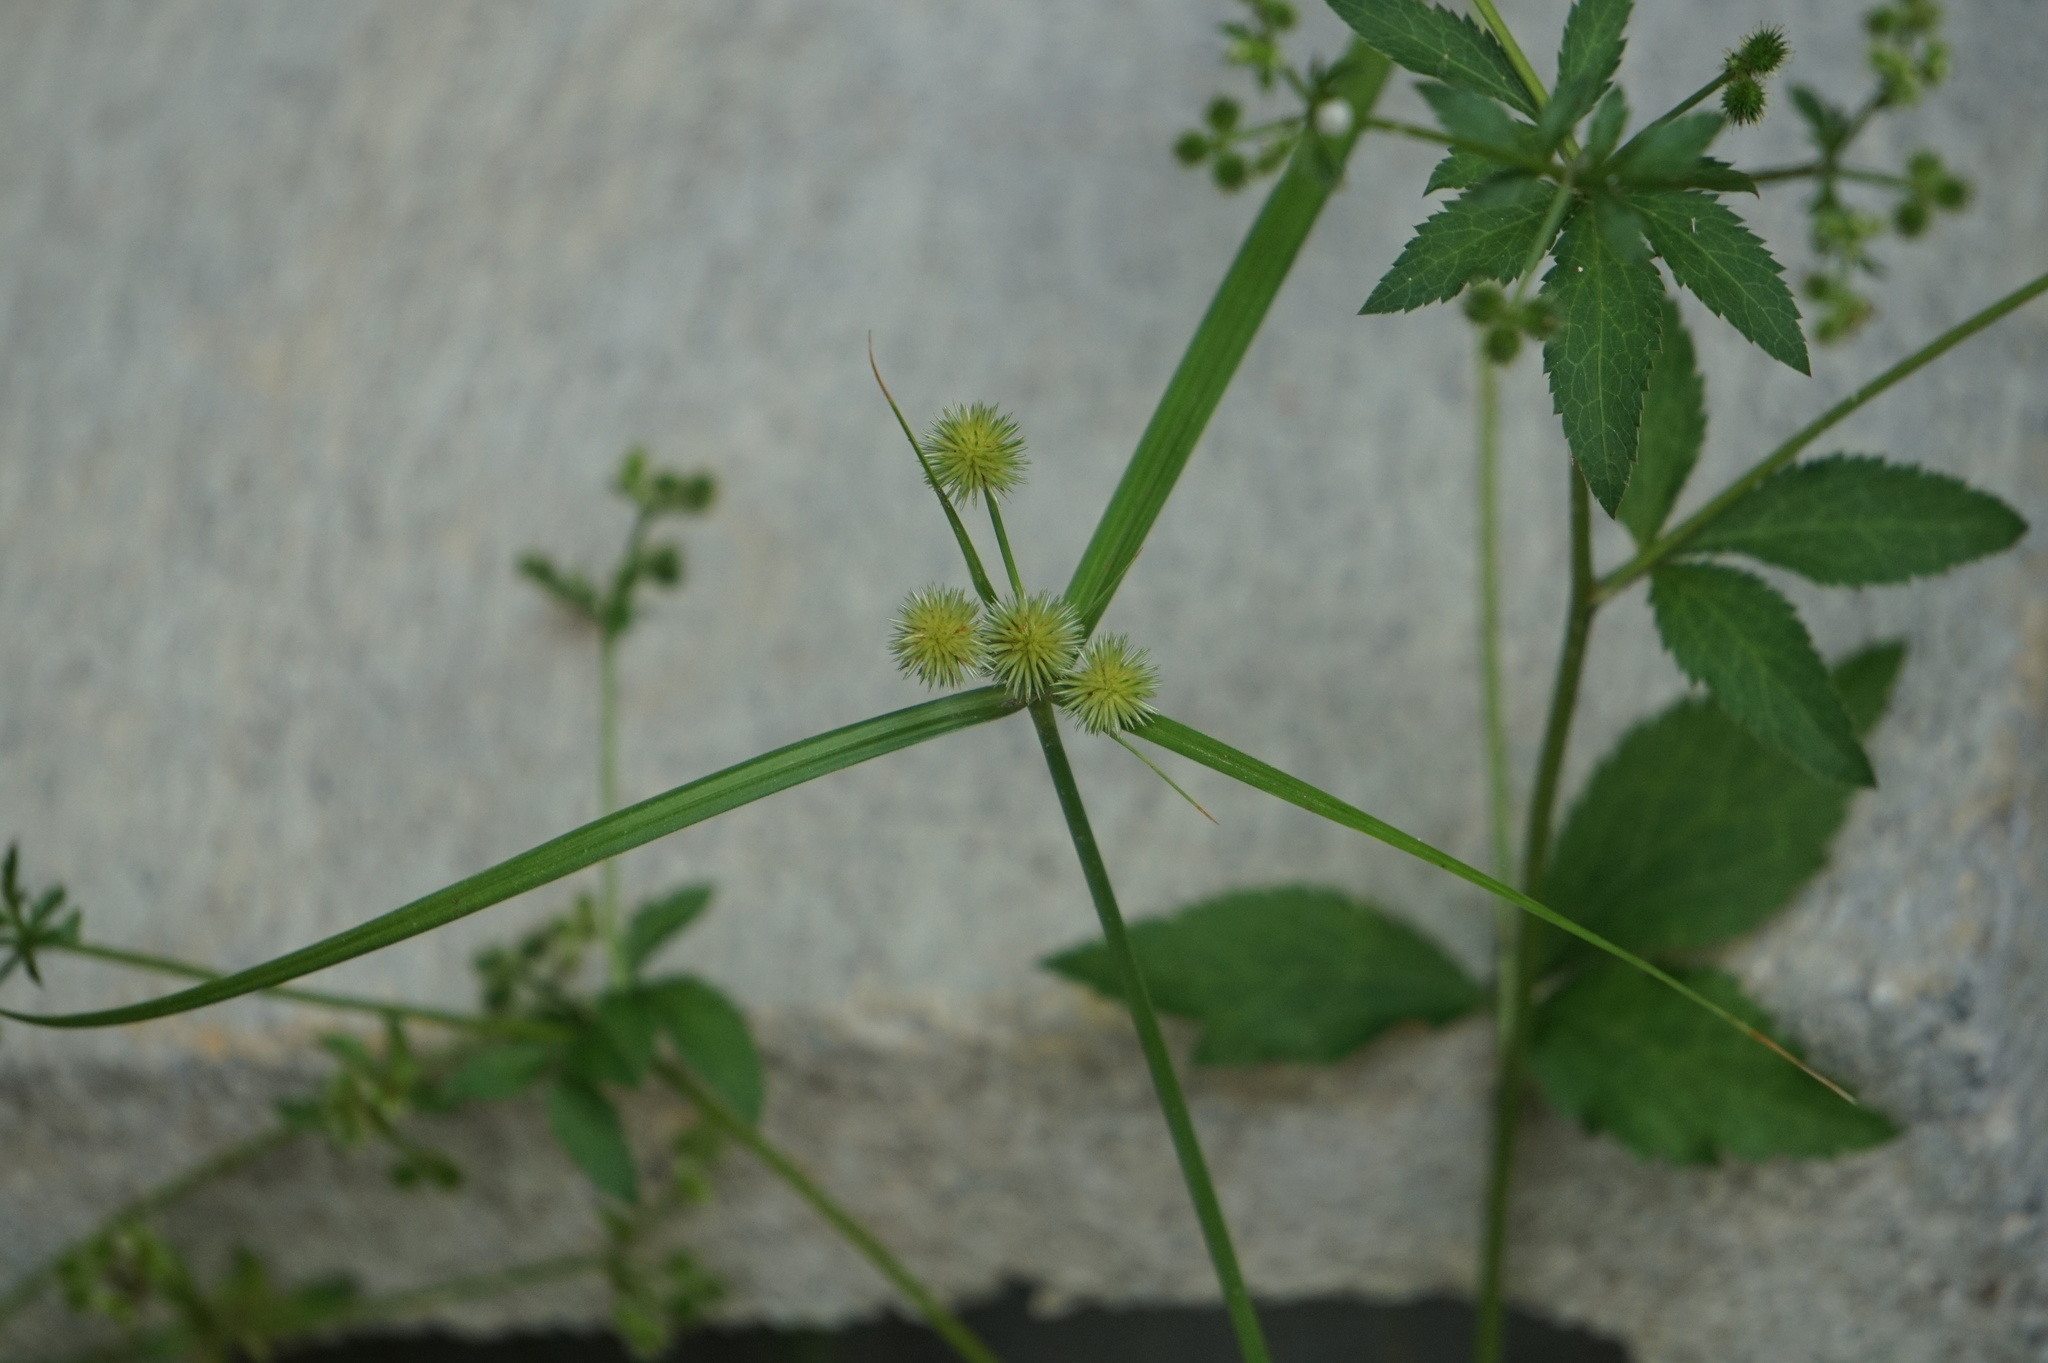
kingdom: Plantae
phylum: Tracheophyta
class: Liliopsida
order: Poales
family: Cyperaceae
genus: Cyperus
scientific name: Cyperus echinatus
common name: Teasel sedge
